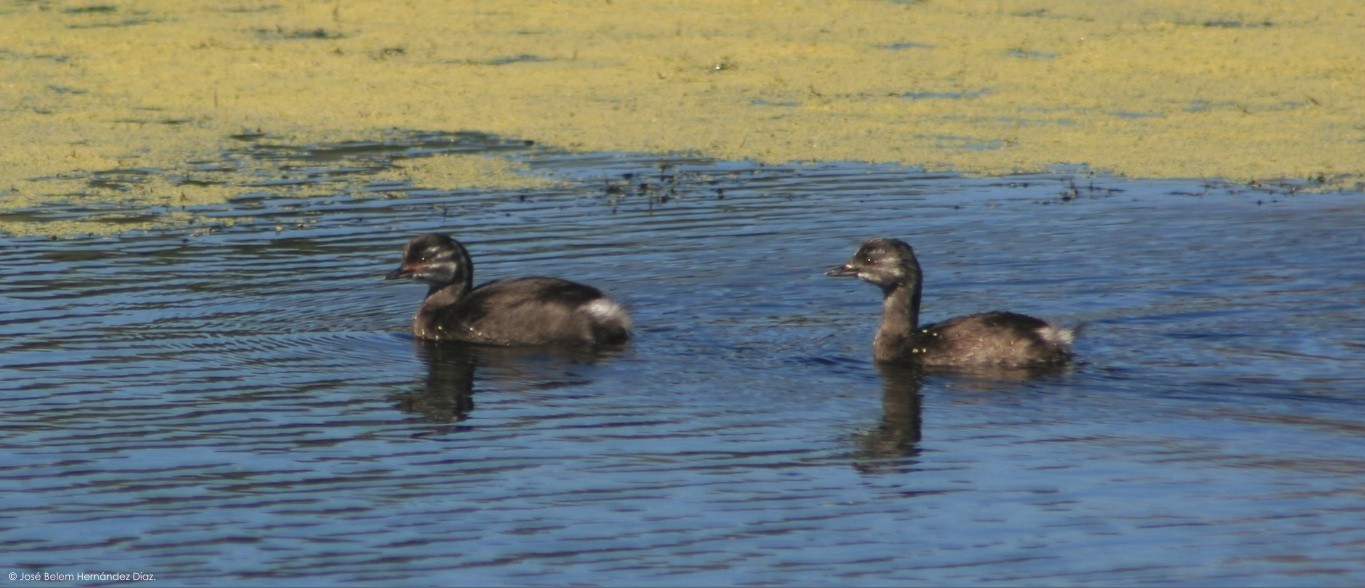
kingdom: Animalia
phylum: Chordata
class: Aves
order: Podicipediformes
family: Podicipedidae
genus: Tachybaptus
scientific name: Tachybaptus dominicus
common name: Least grebe
